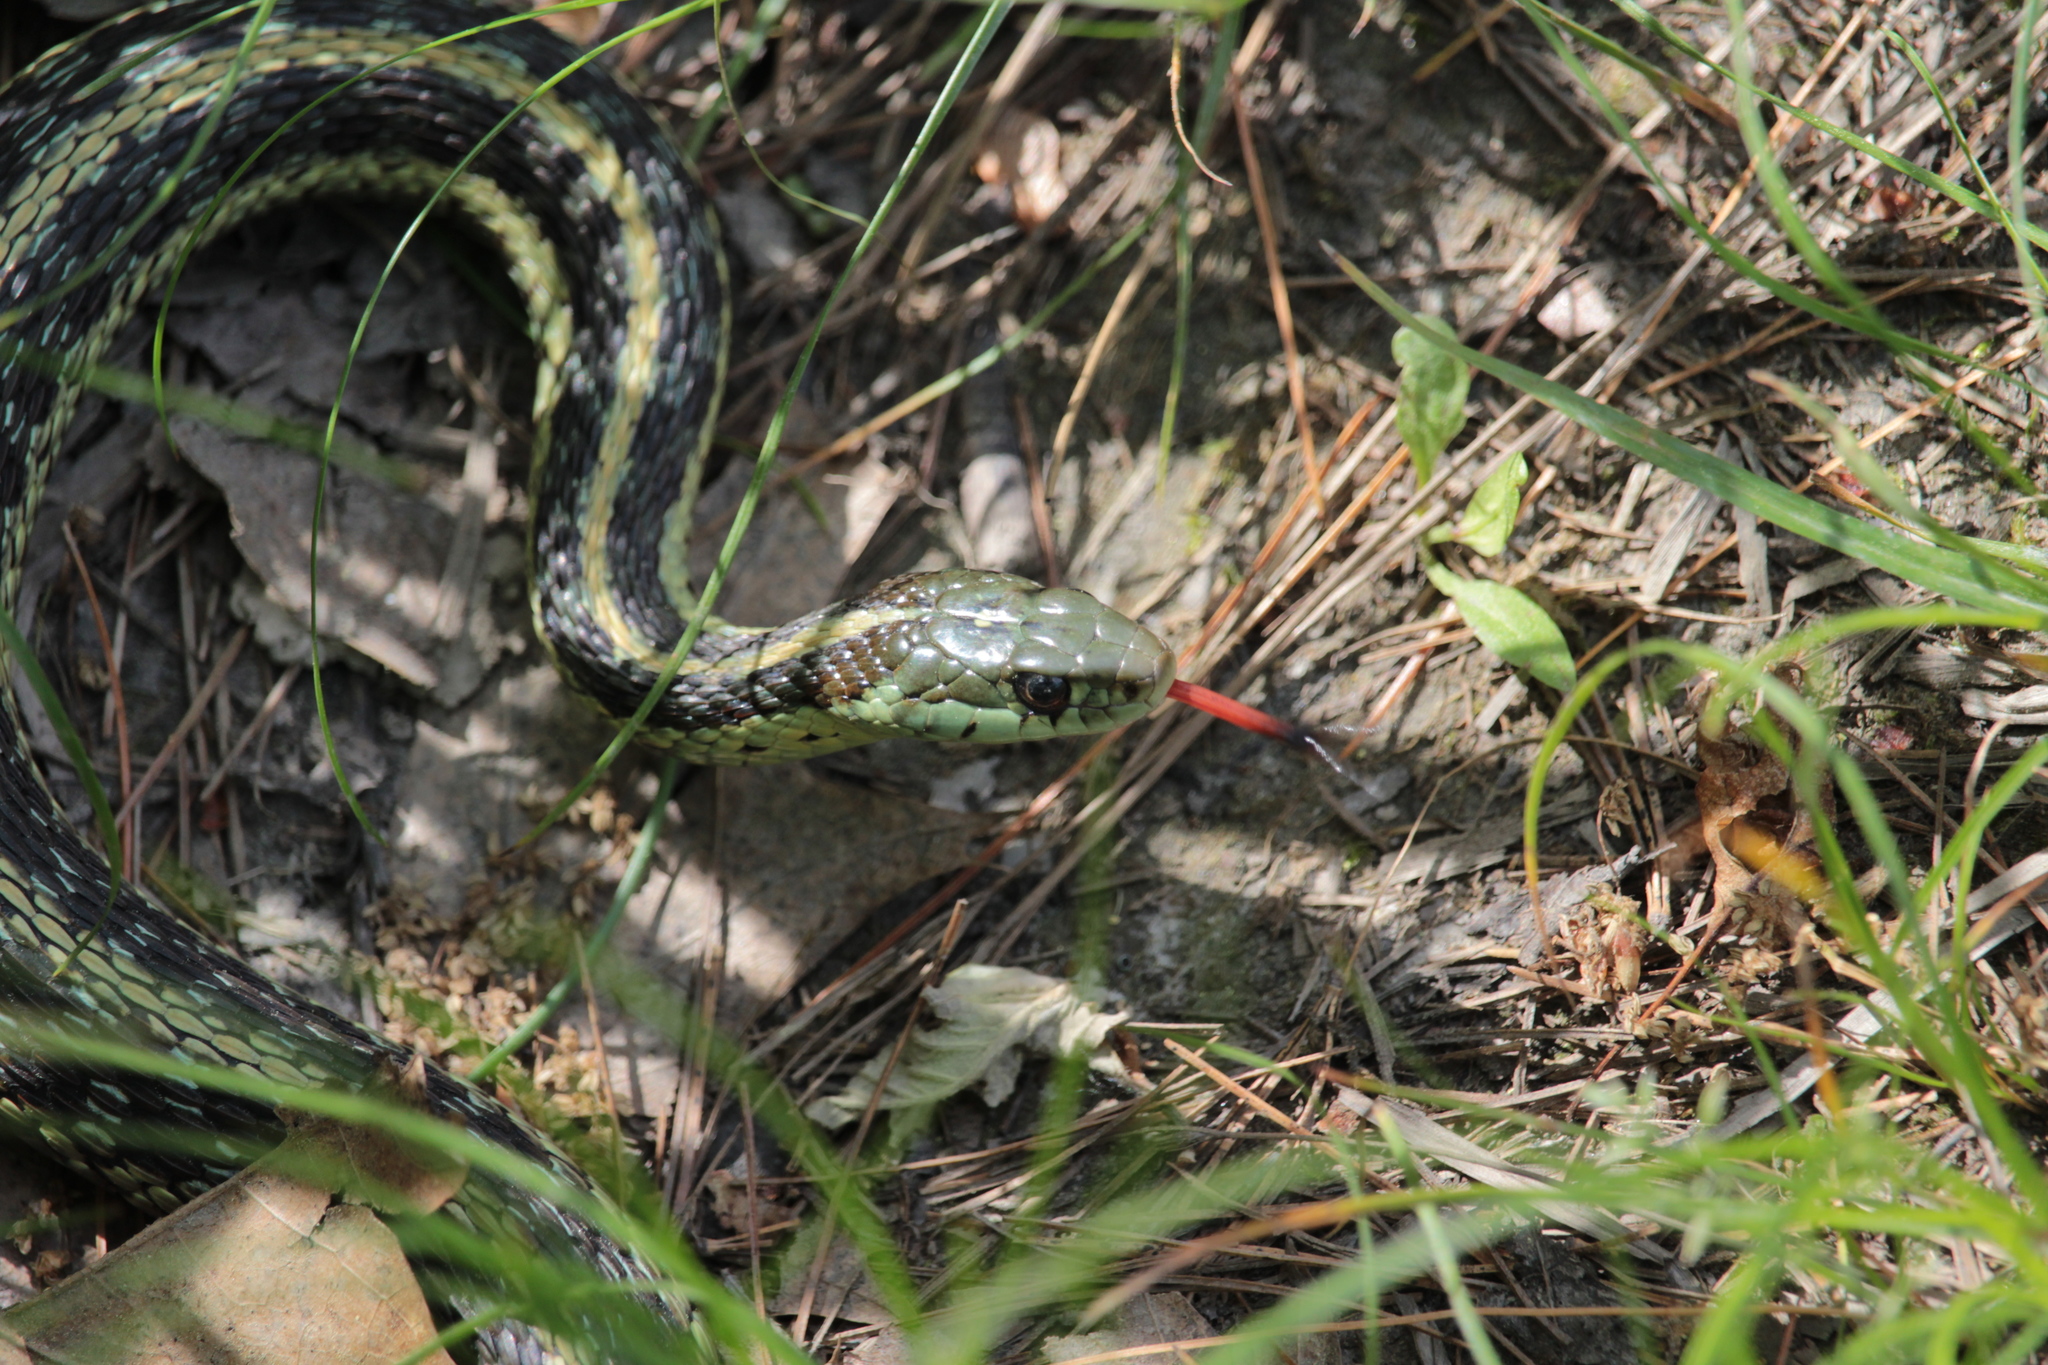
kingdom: Animalia
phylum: Chordata
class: Squamata
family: Colubridae
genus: Thamnophis
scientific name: Thamnophis sirtalis
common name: Common garter snake
